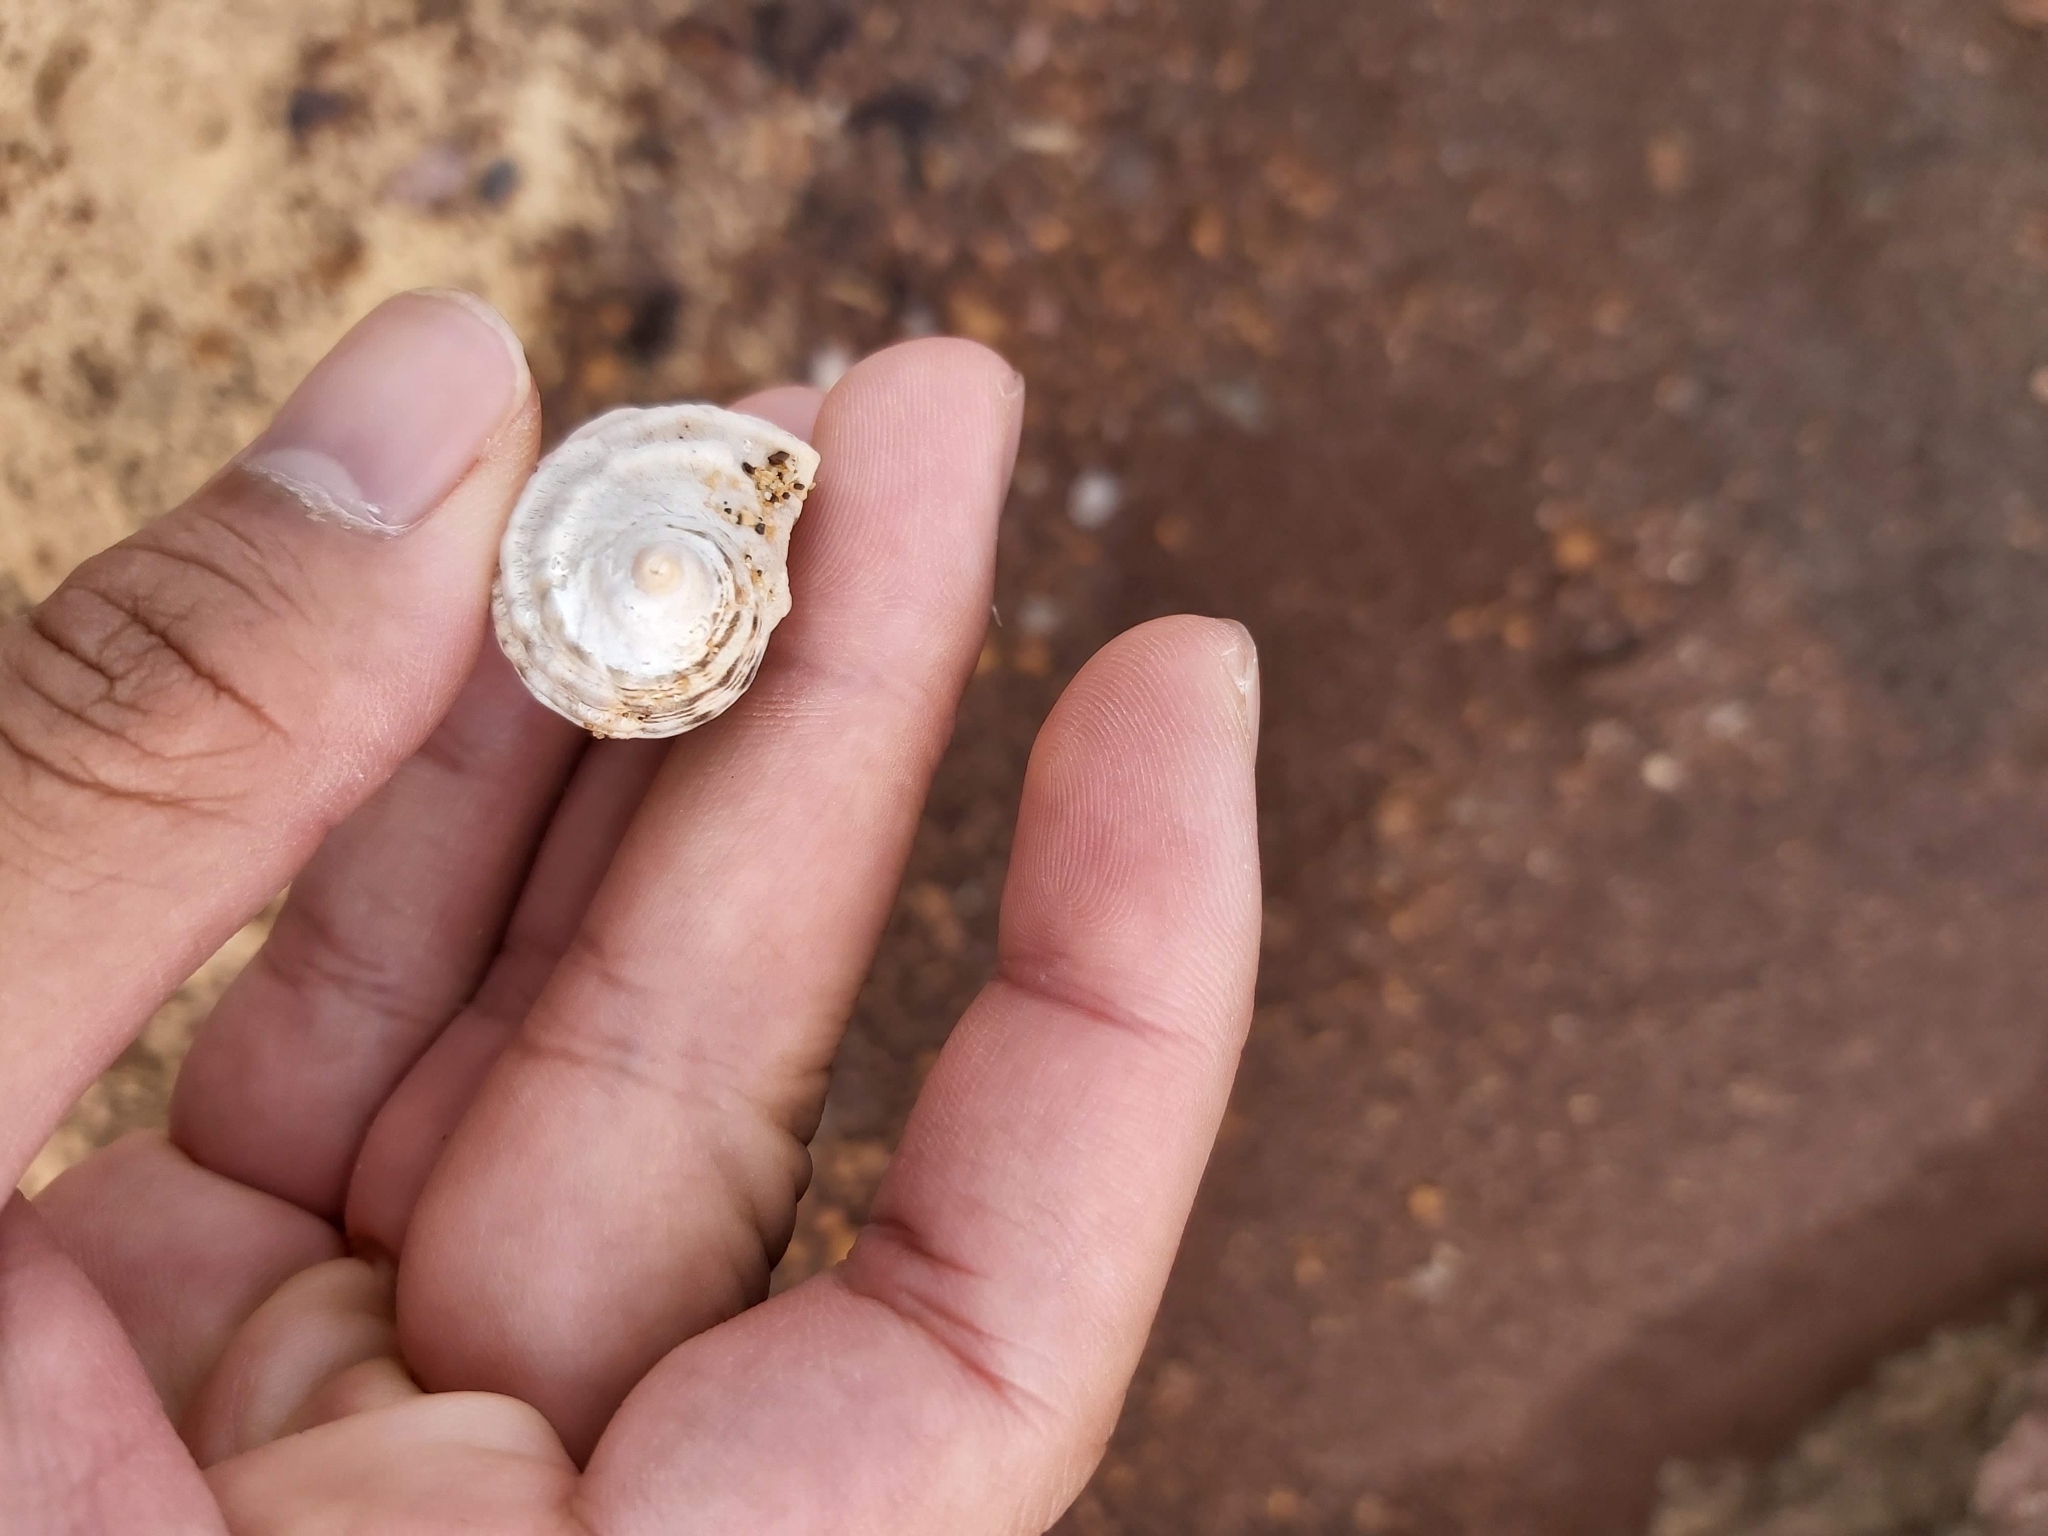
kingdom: Animalia
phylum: Mollusca
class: Gastropoda
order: Neogastropoda
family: Muricidae
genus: Dicathais
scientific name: Dicathais orbita
